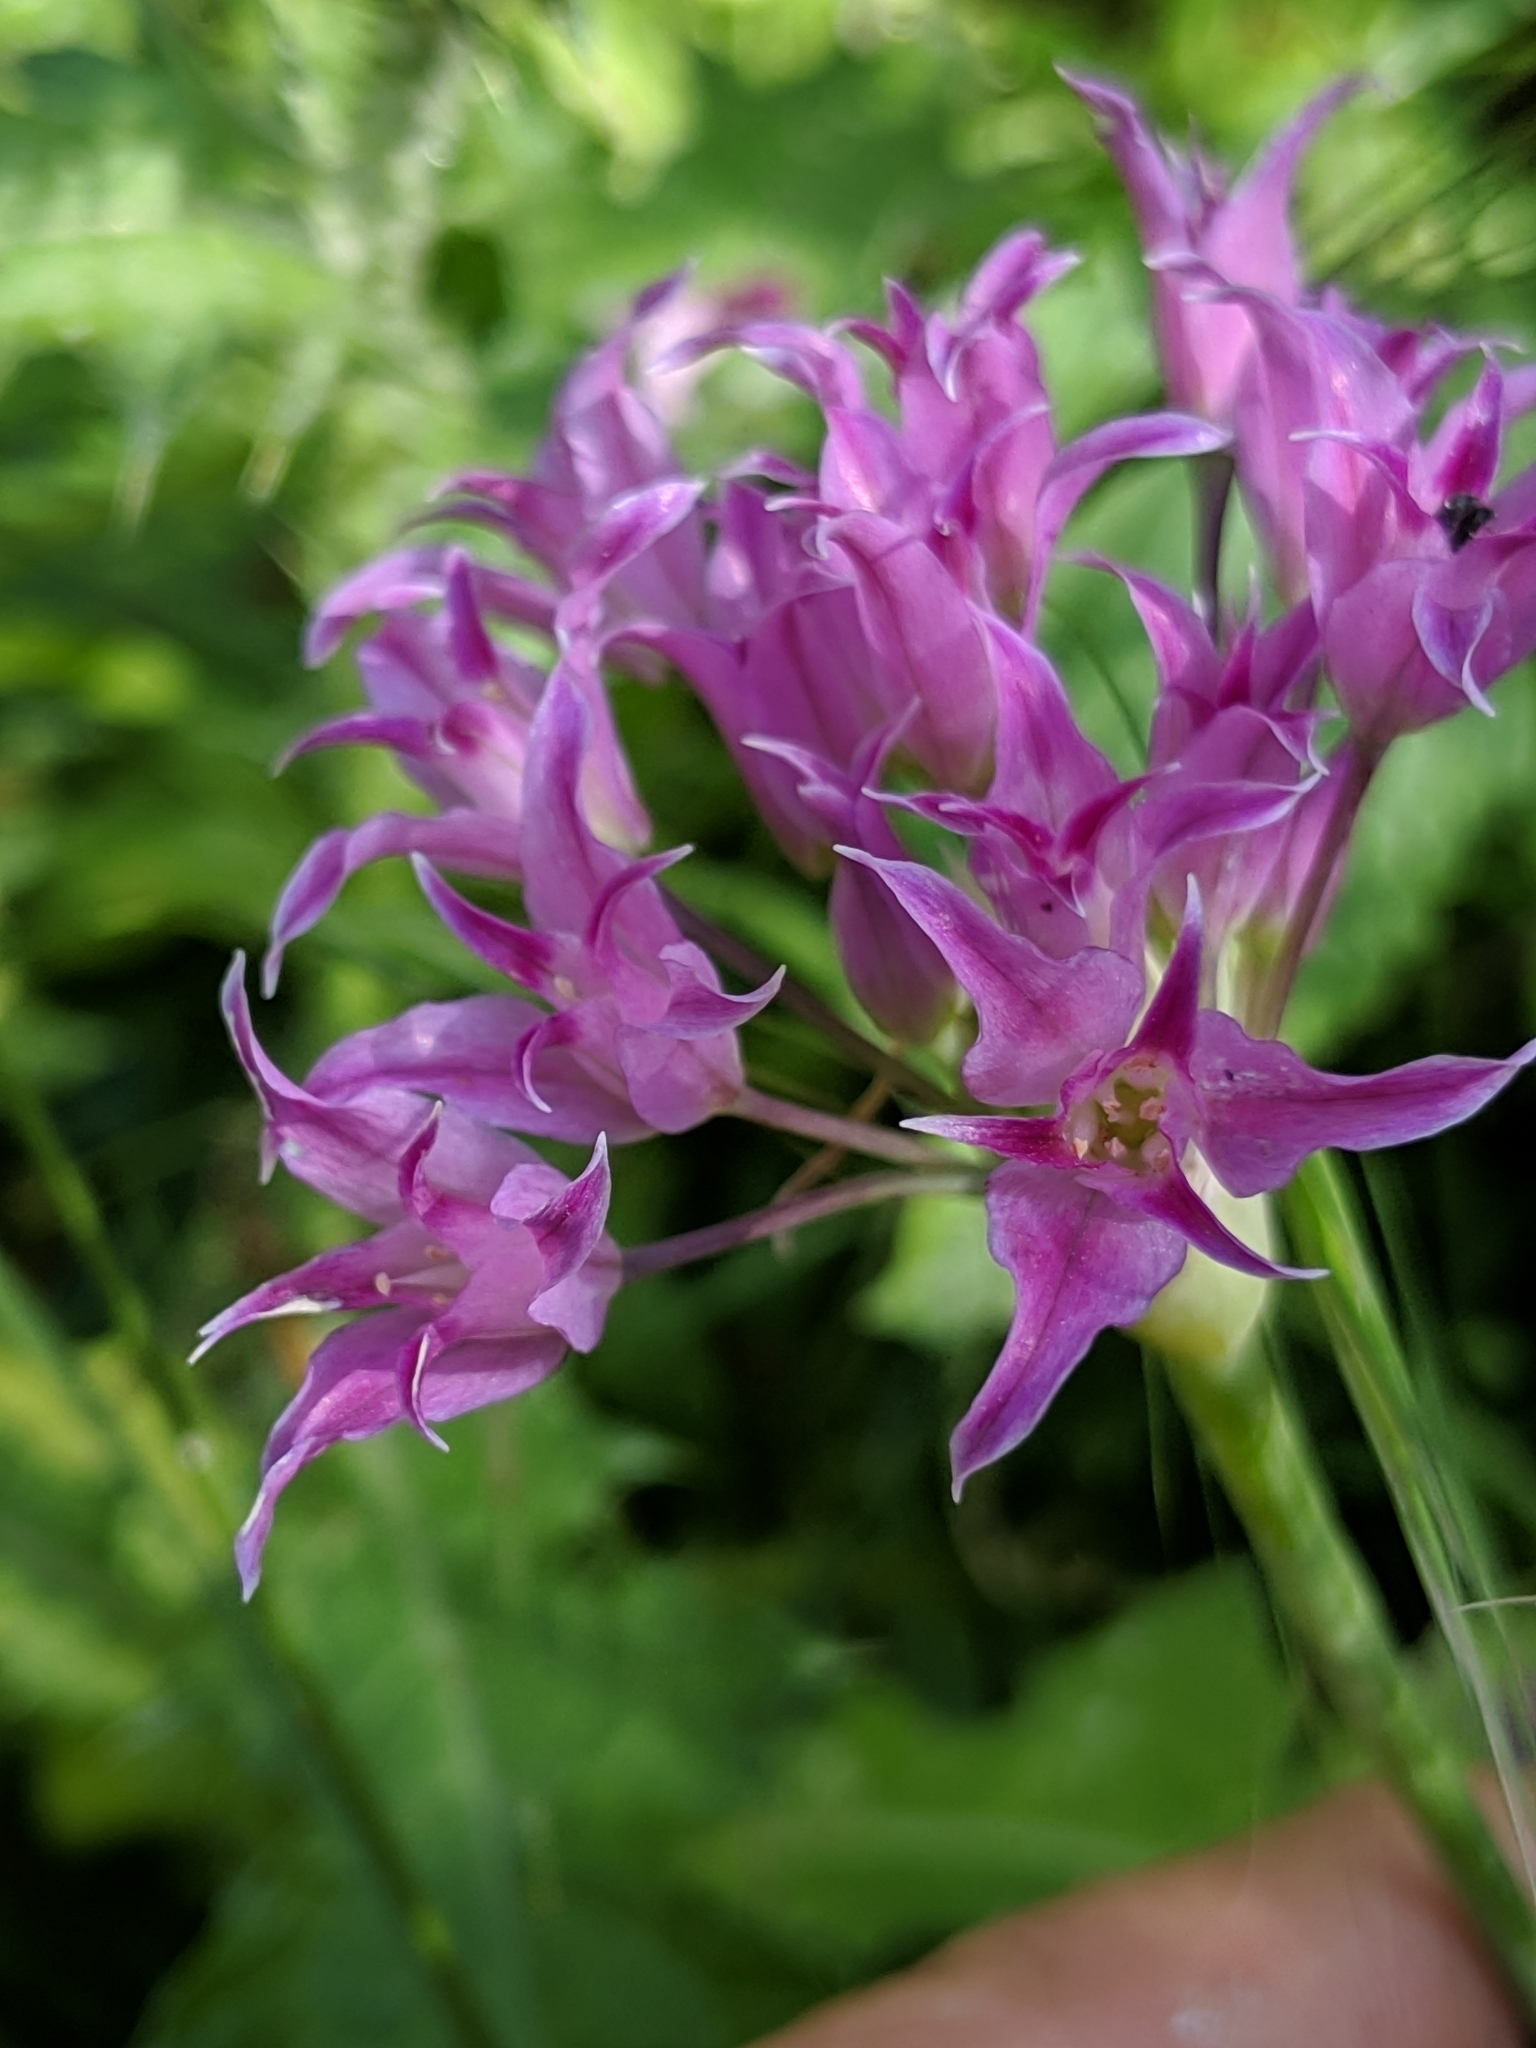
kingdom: Plantae
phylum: Tracheophyta
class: Liliopsida
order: Asparagales
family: Amaryllidaceae
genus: Allium
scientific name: Allium peninsulare
